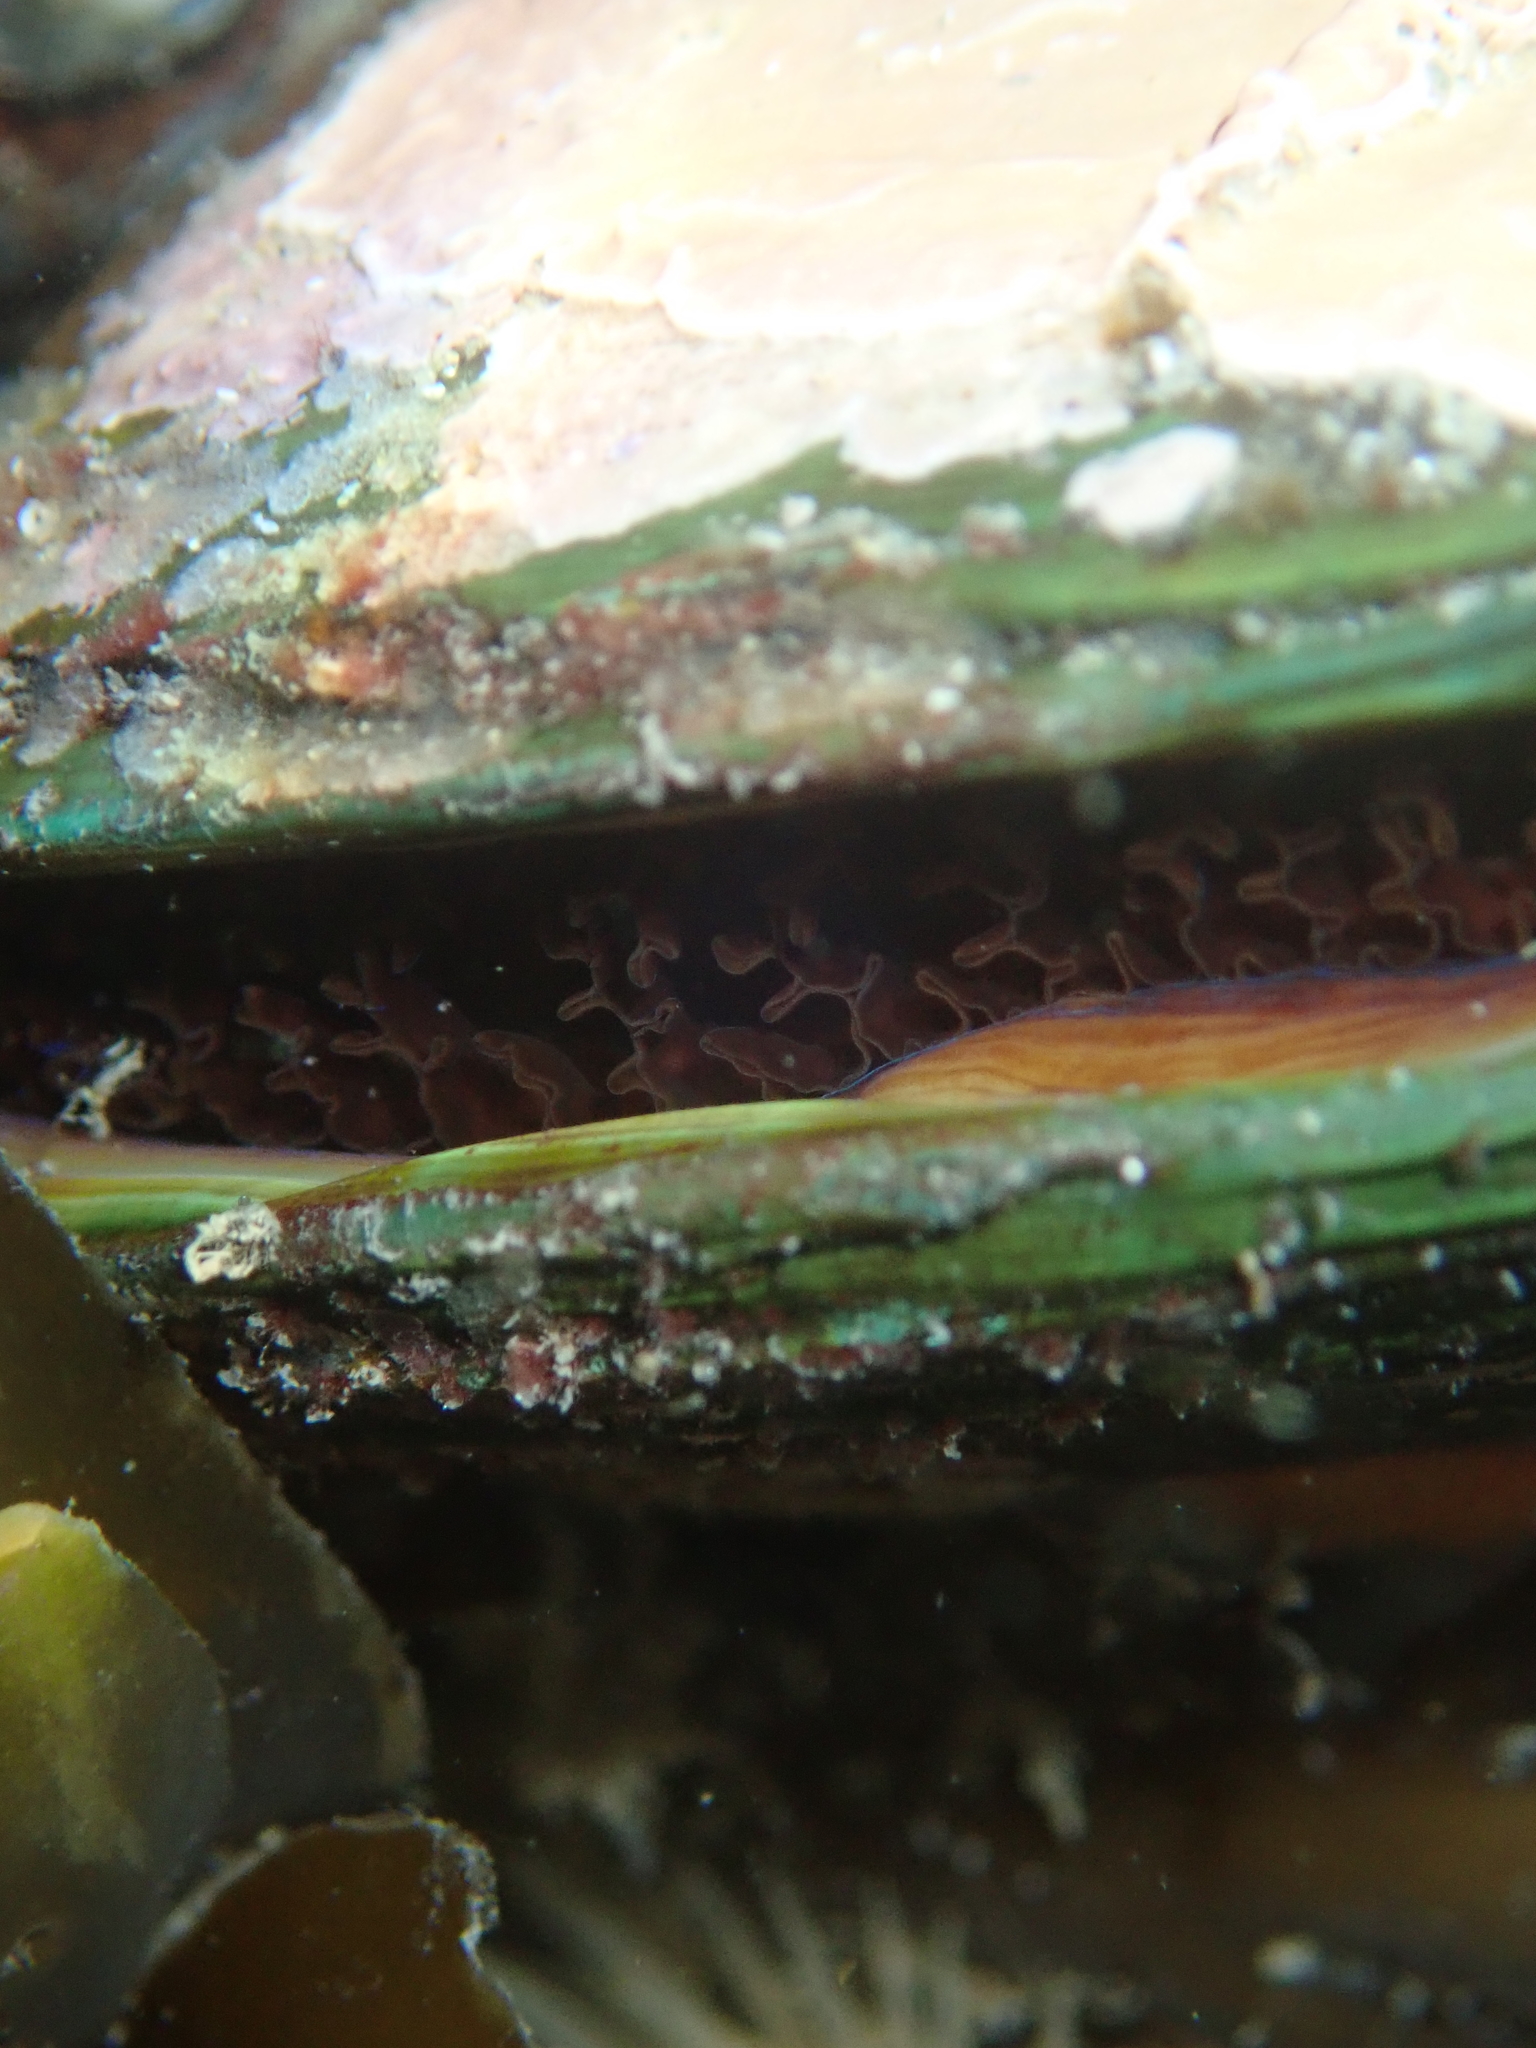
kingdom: Animalia
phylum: Mollusca
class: Bivalvia
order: Mytilida
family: Mytilidae
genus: Perna
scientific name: Perna canaliculus
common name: New zealand greenshelltm
